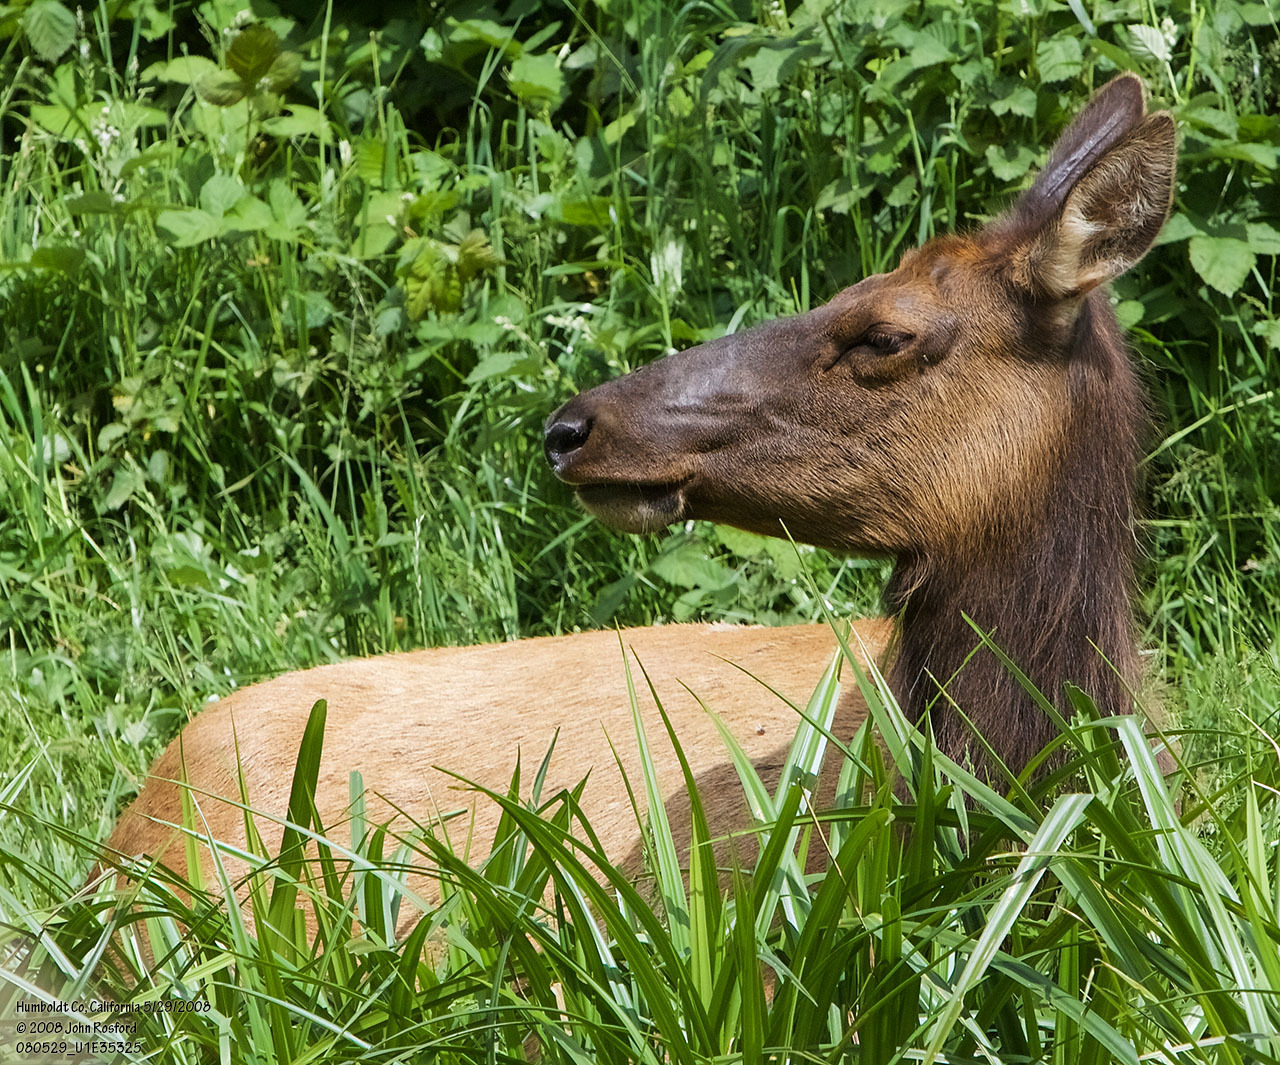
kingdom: Animalia
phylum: Chordata
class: Mammalia
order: Artiodactyla
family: Cervidae
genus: Cervus
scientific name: Cervus elaphus
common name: Red deer
